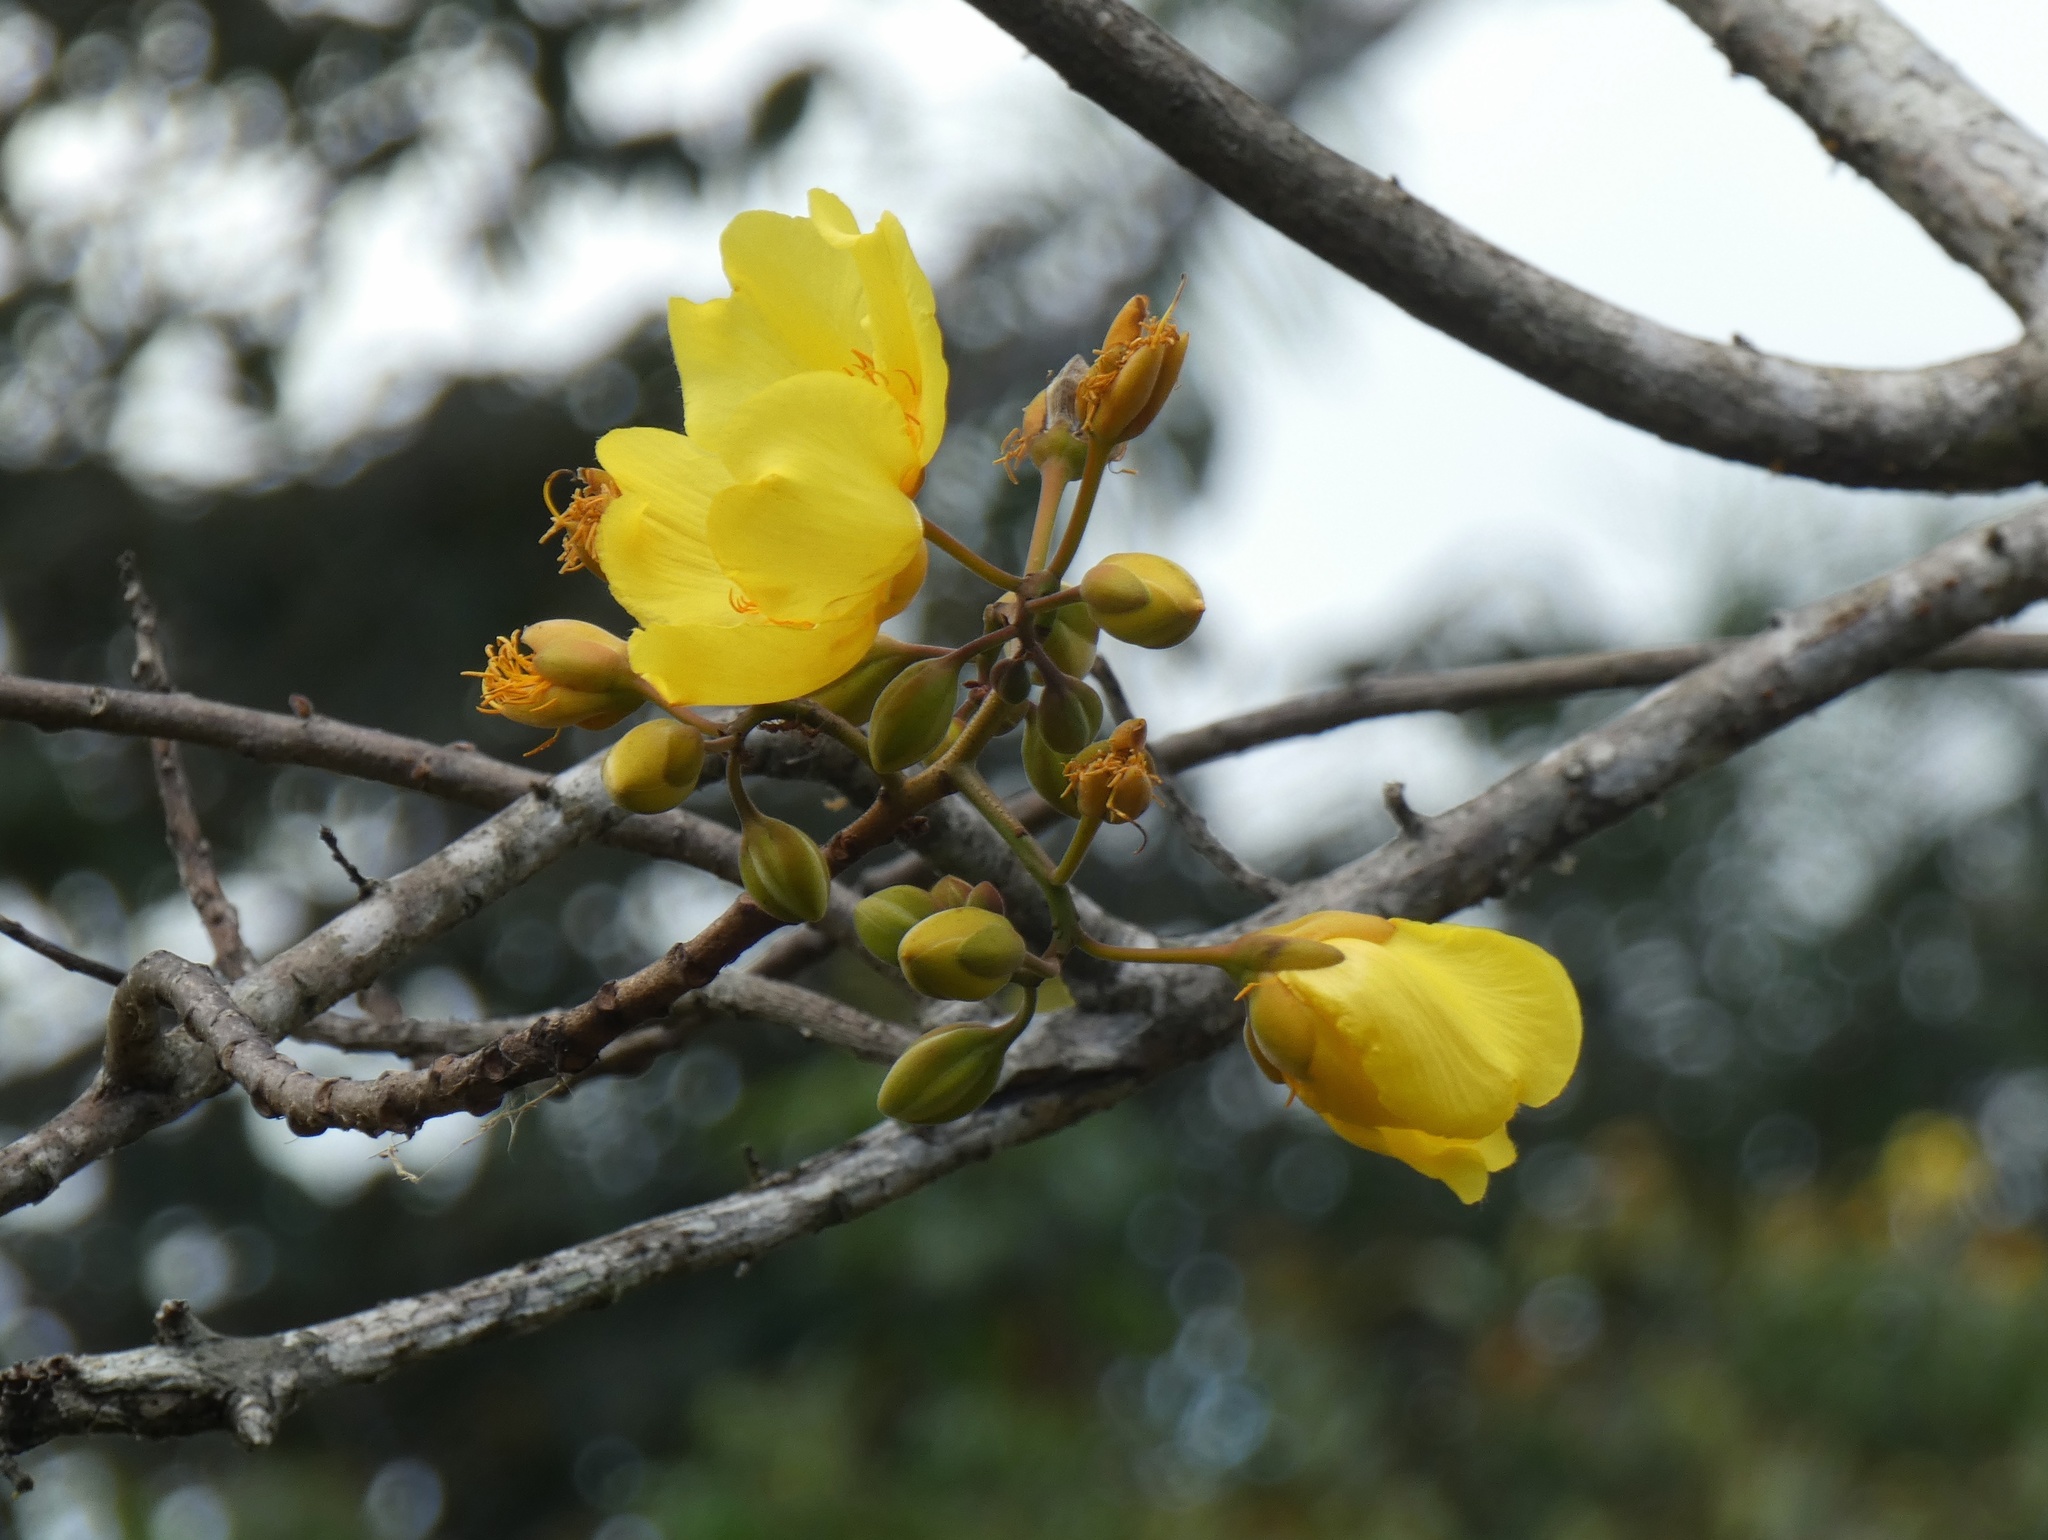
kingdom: Plantae
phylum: Tracheophyta
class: Magnoliopsida
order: Malvales
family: Cochlospermaceae
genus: Cochlospermum
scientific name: Cochlospermum vitifolium
